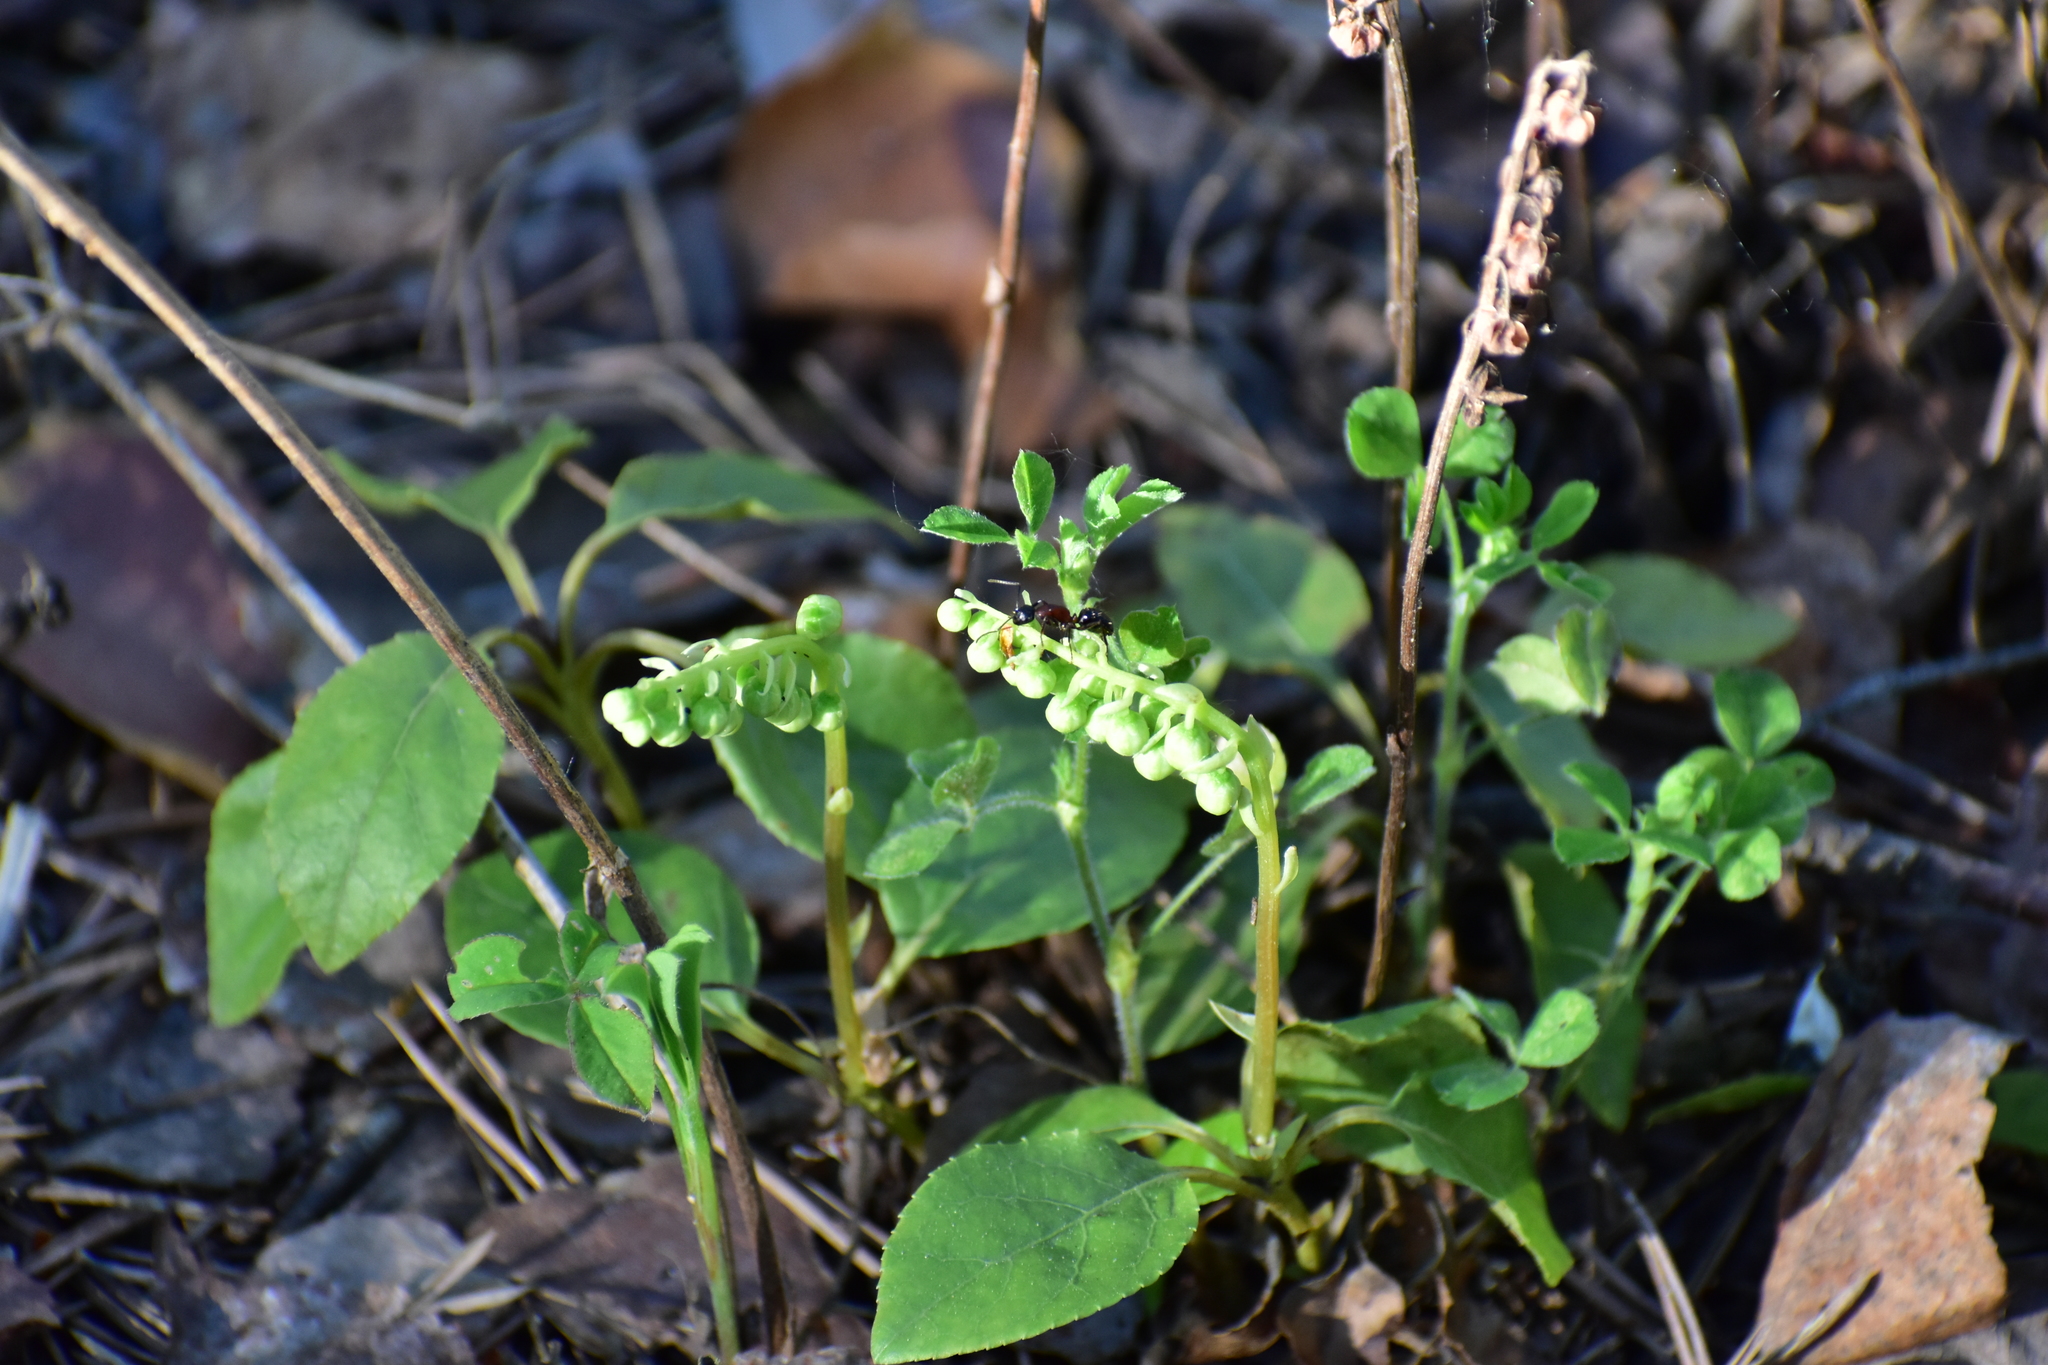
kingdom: Plantae
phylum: Tracheophyta
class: Magnoliopsida
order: Ericales
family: Ericaceae
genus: Orthilia
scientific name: Orthilia secunda
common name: One-sided orthilia
